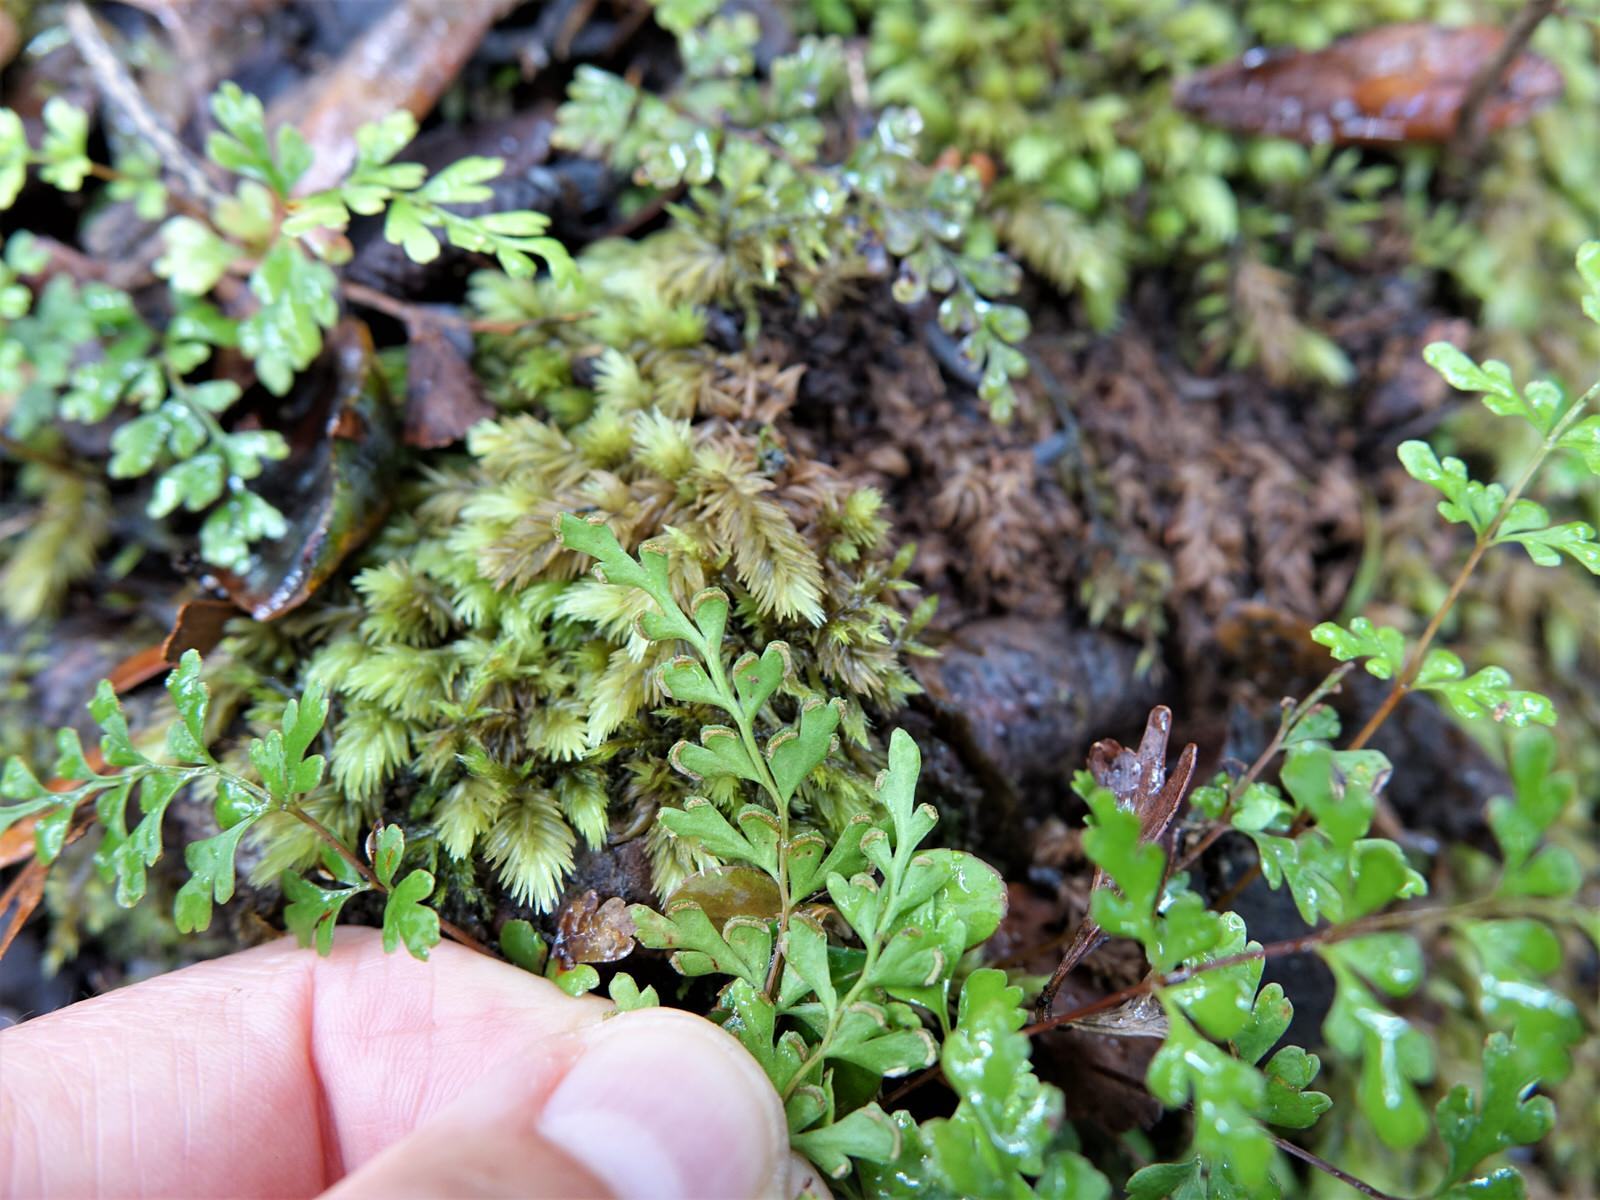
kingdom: Plantae
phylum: Tracheophyta
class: Polypodiopsida
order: Polypodiales
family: Lindsaeaceae
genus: Lindsaea
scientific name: Lindsaea trichomanoides
